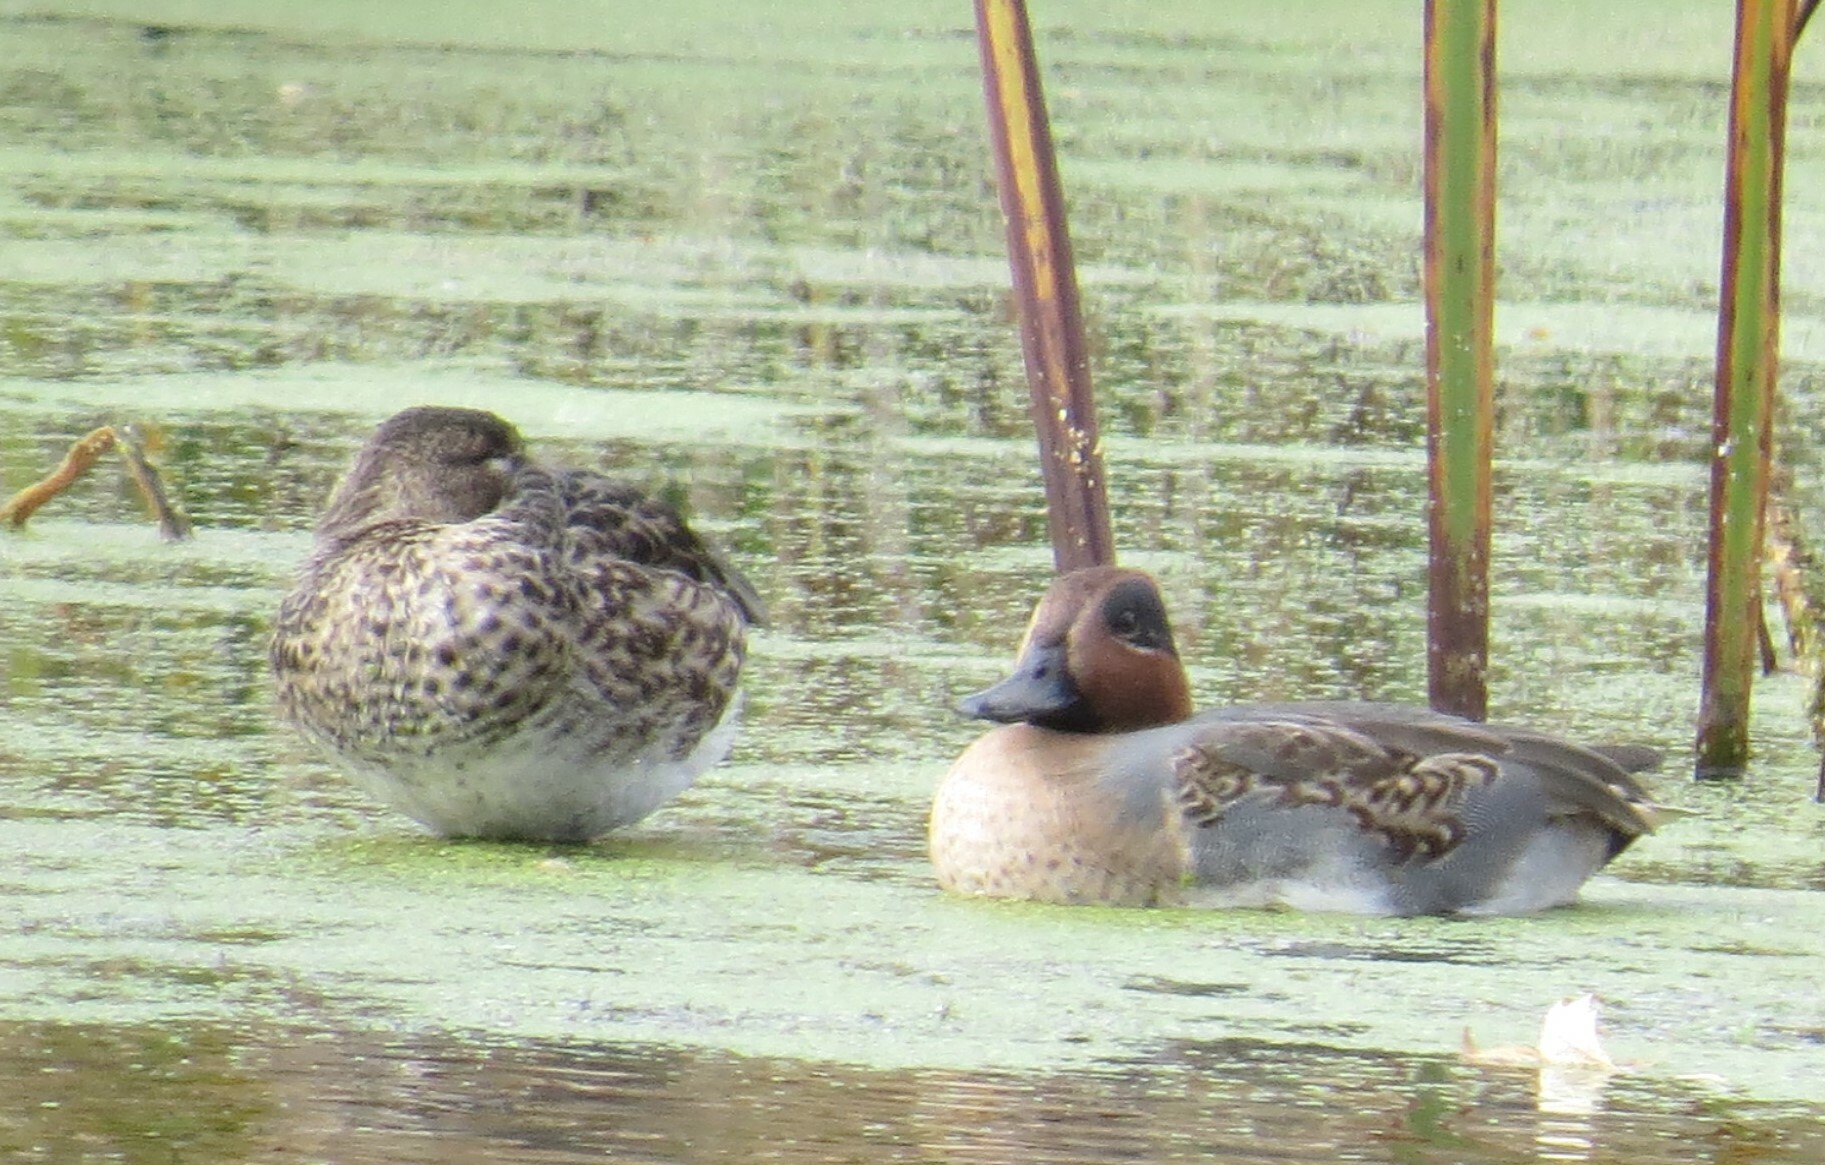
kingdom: Animalia
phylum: Chordata
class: Aves
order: Anseriformes
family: Anatidae
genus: Anas
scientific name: Anas crecca
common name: Eurasian teal
